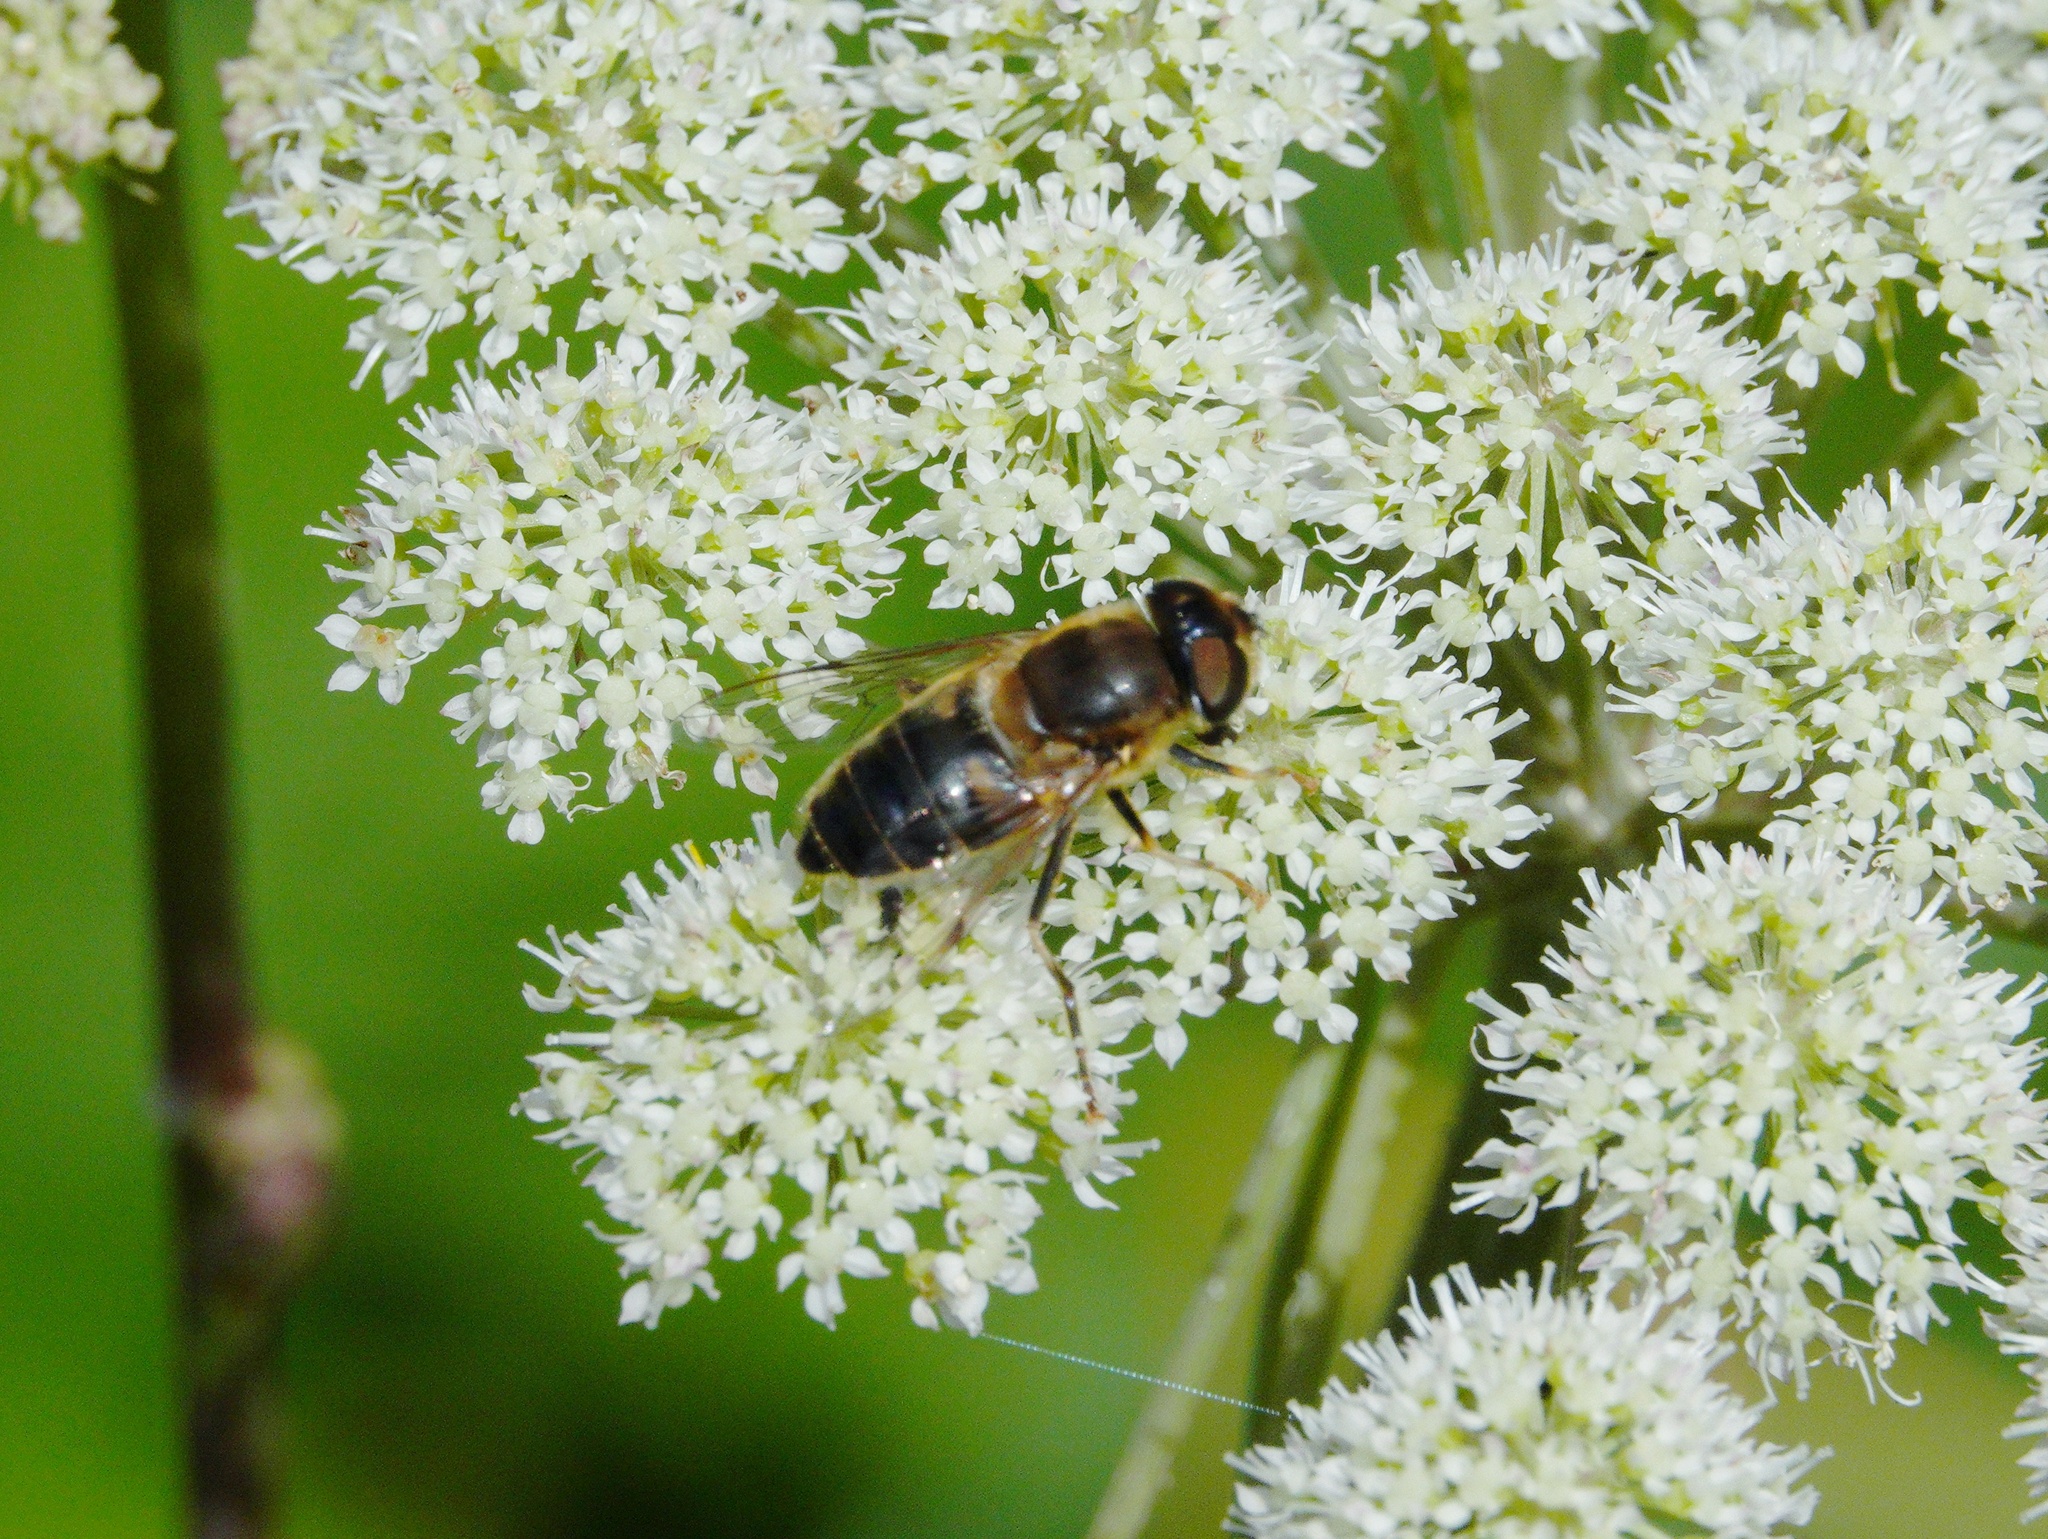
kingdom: Animalia
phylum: Arthropoda
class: Insecta
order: Diptera
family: Syrphidae
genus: Eristalis
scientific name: Eristalis pertinax
